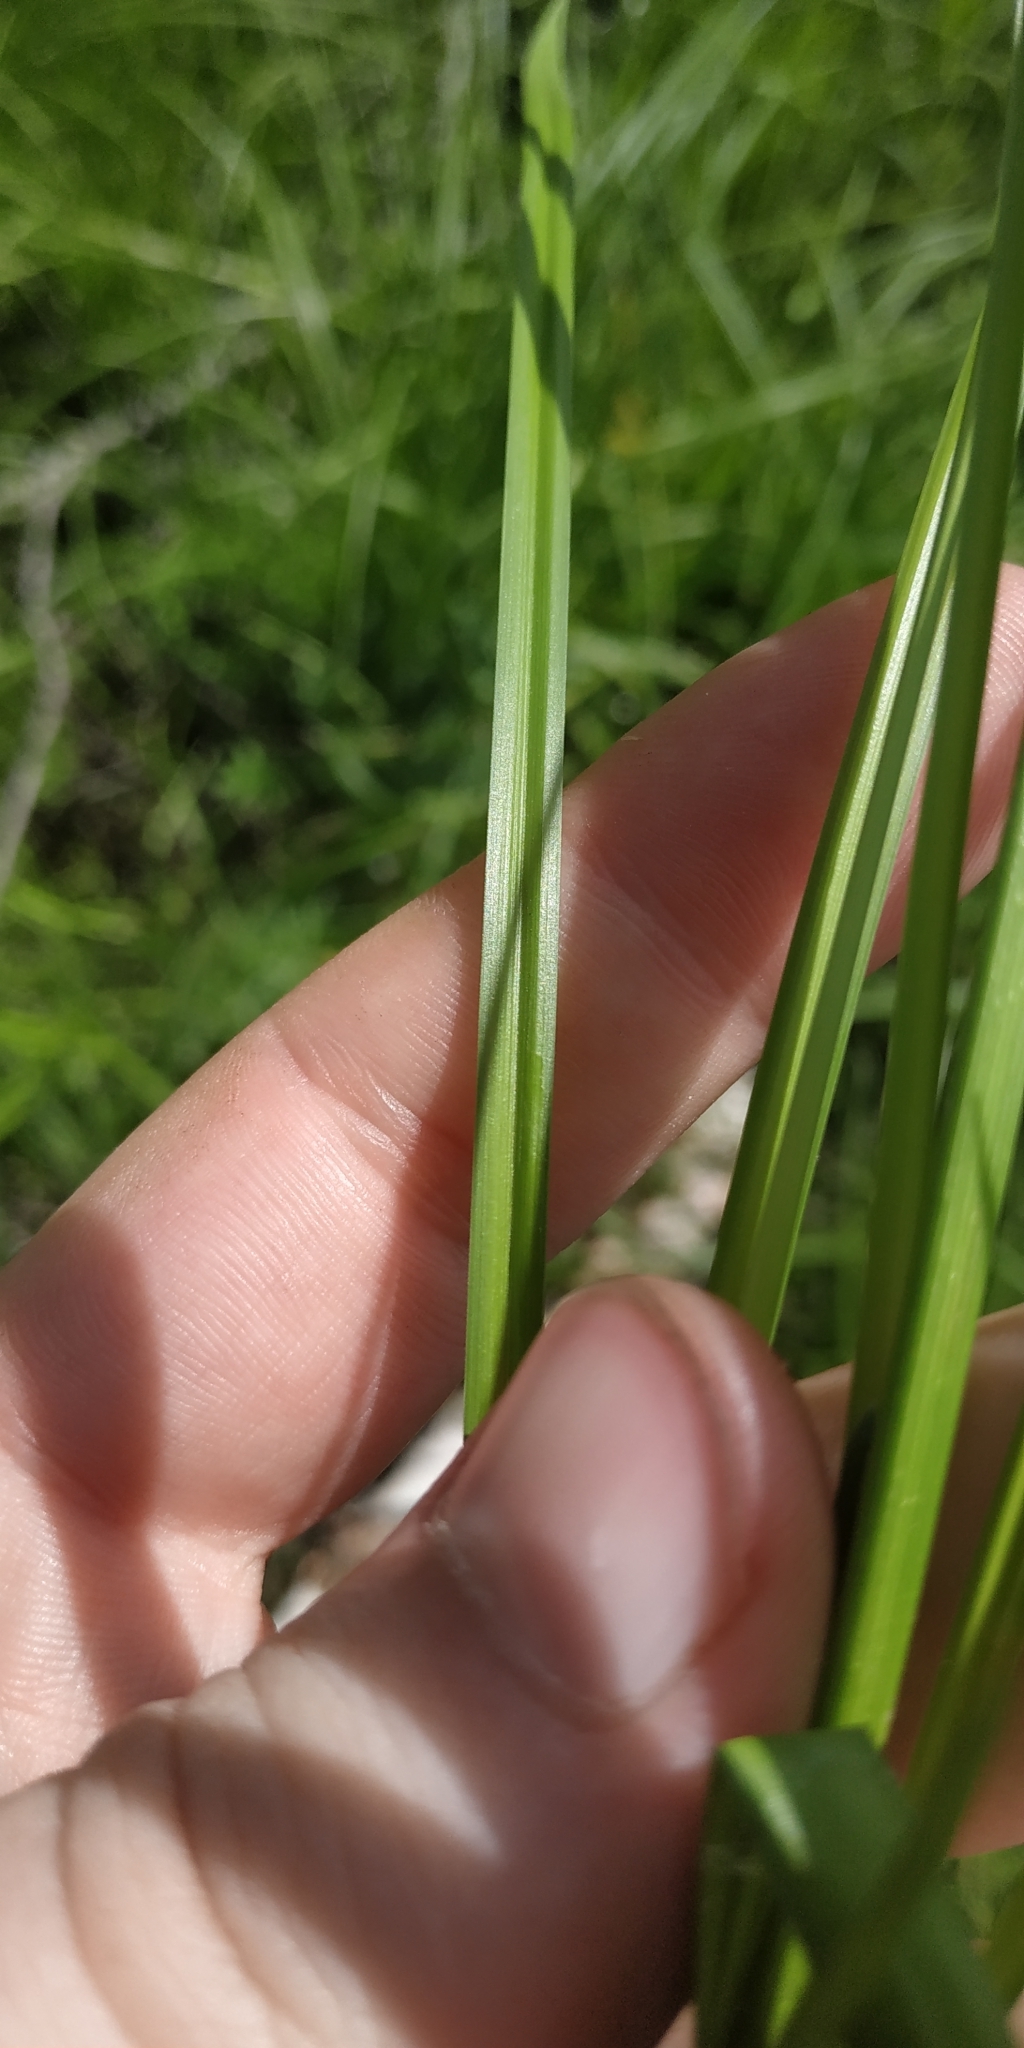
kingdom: Plantae
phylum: Tracheophyta
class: Liliopsida
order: Poales
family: Cyperaceae
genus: Carex
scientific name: Carex vesicaria
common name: Bladder-sedge
